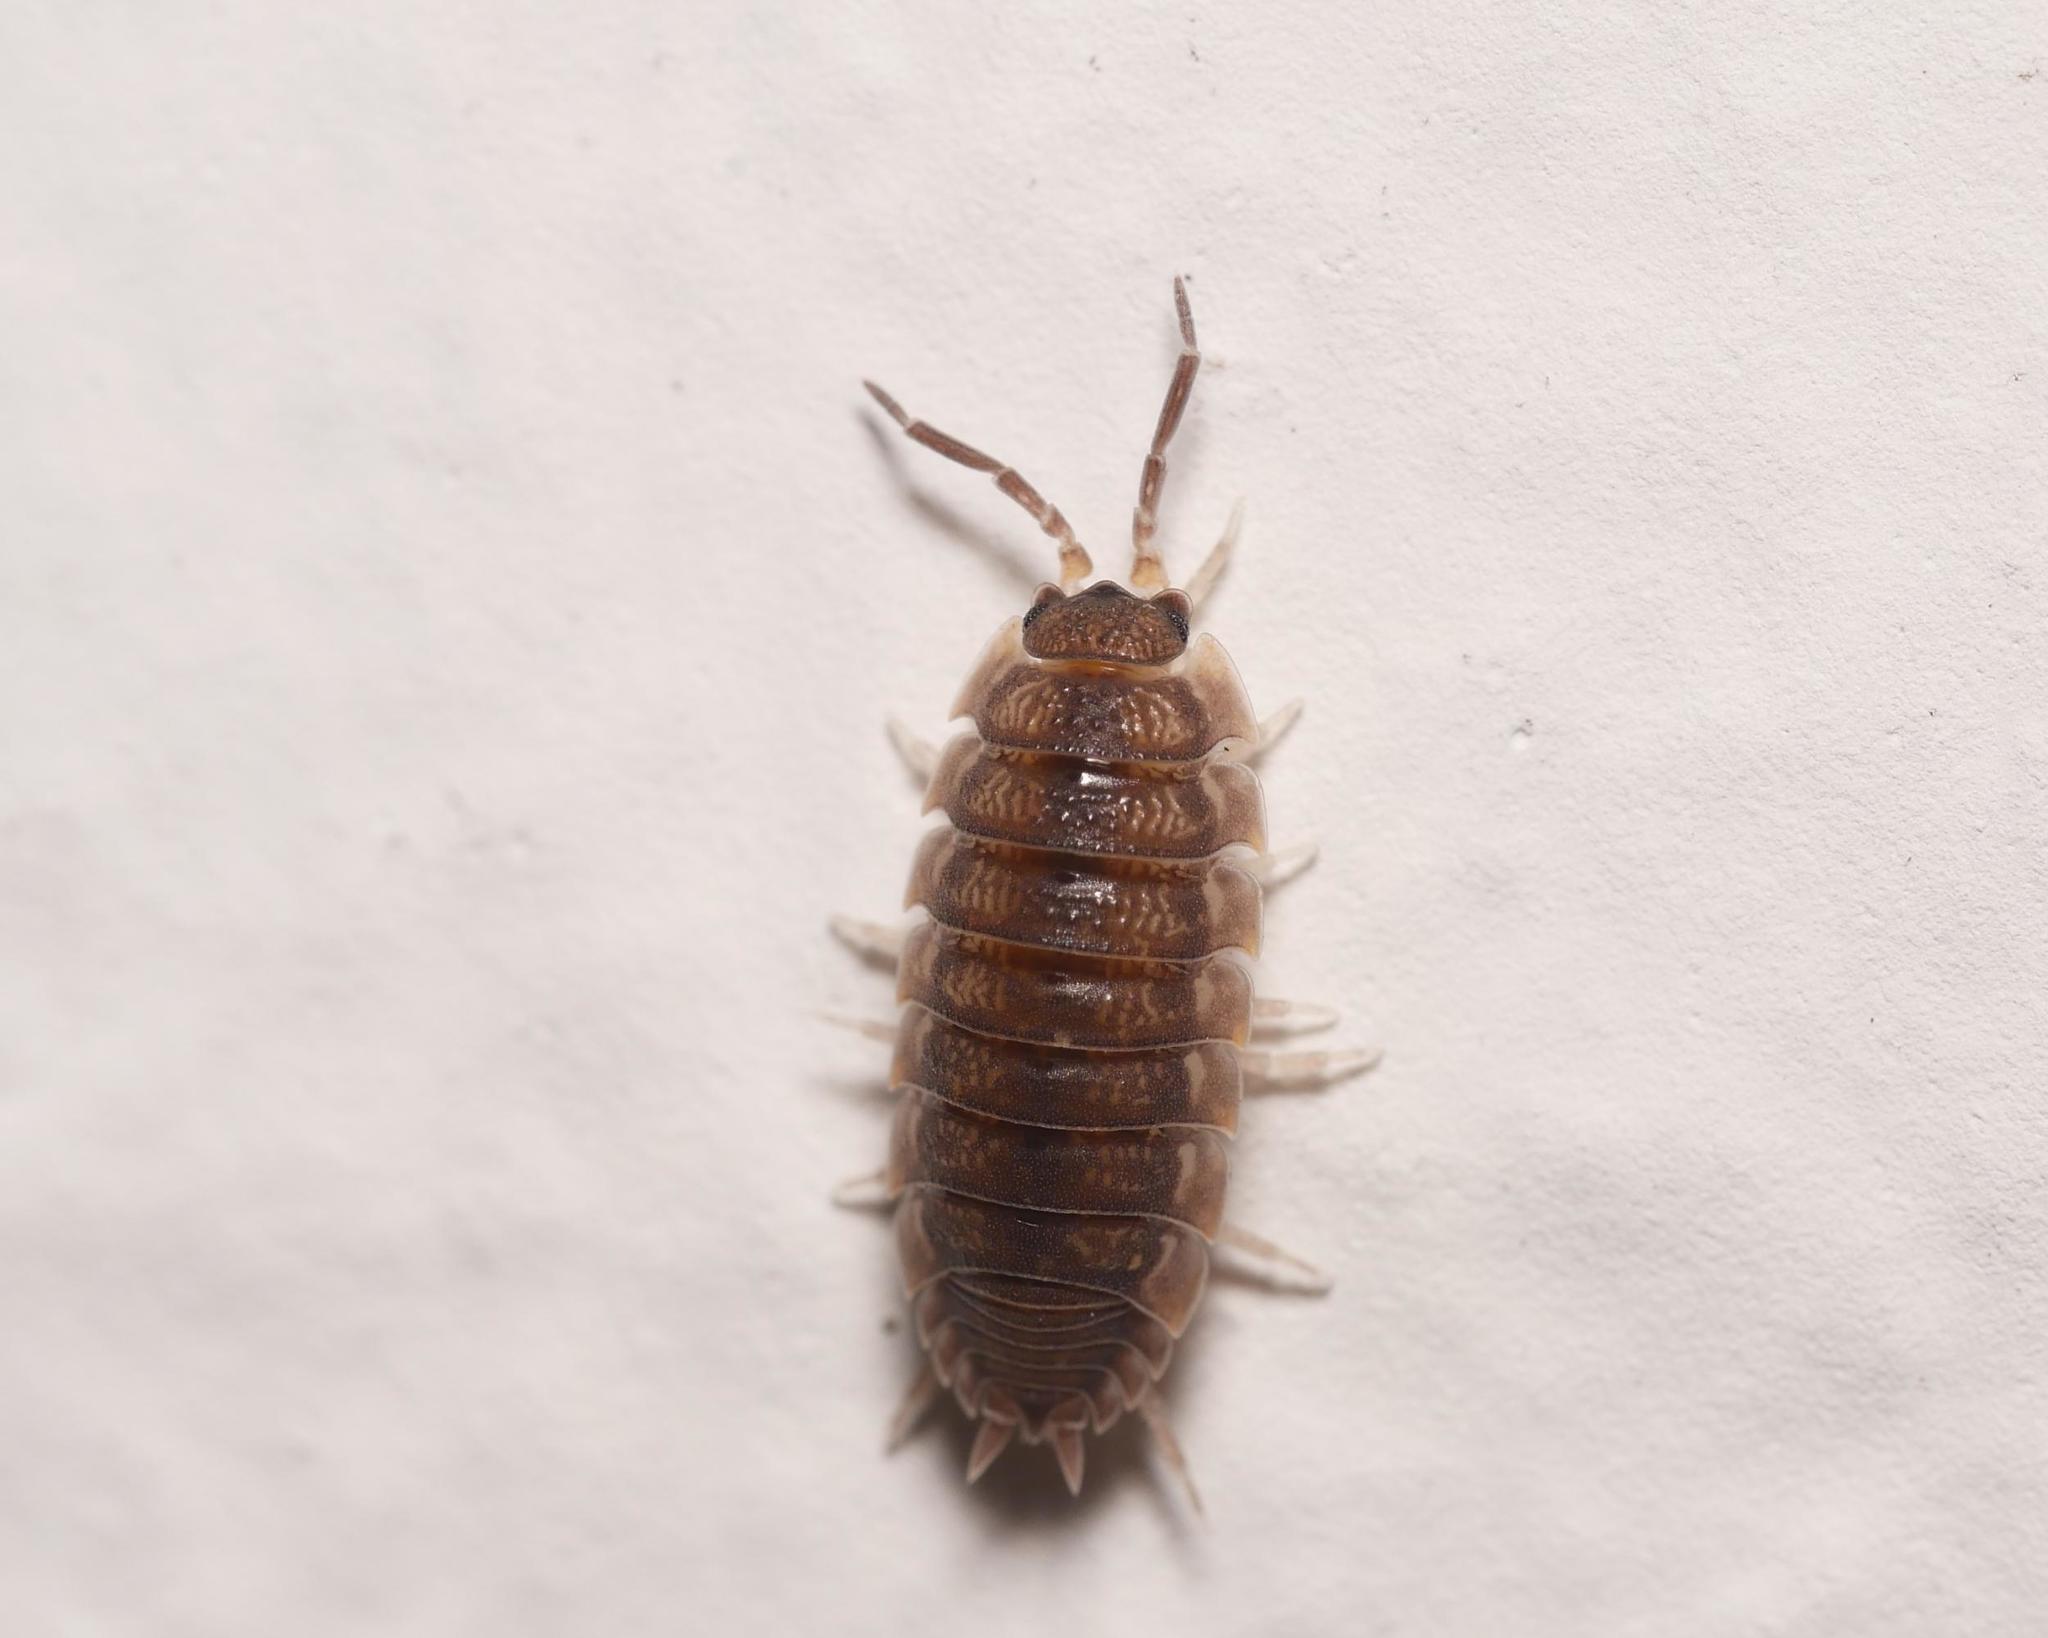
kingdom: Animalia
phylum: Arthropoda
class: Malacostraca
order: Isopoda
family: Porcellionidae
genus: Porcellio
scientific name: Porcellio scaber
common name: Common rough woodlouse
